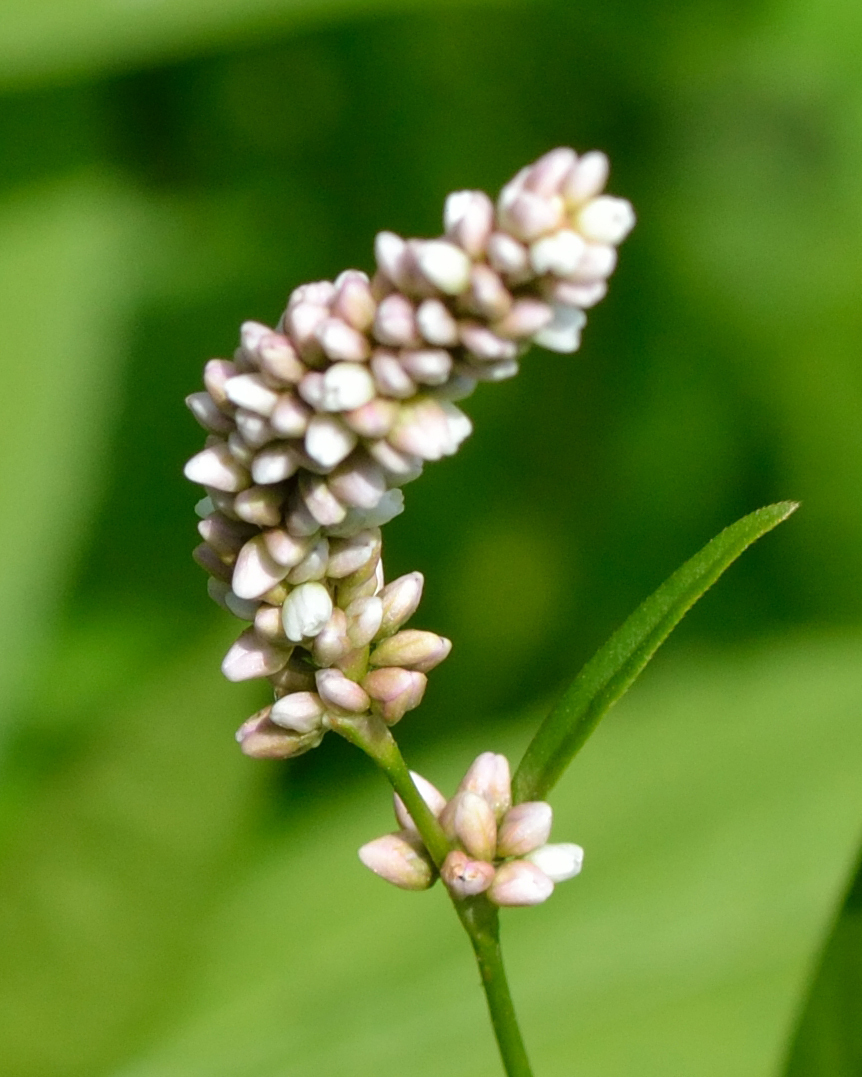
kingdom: Plantae
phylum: Tracheophyta
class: Magnoliopsida
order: Caryophyllales
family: Polygonaceae
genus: Persicaria
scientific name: Persicaria lapathifolia
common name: Curlytop knotweed
